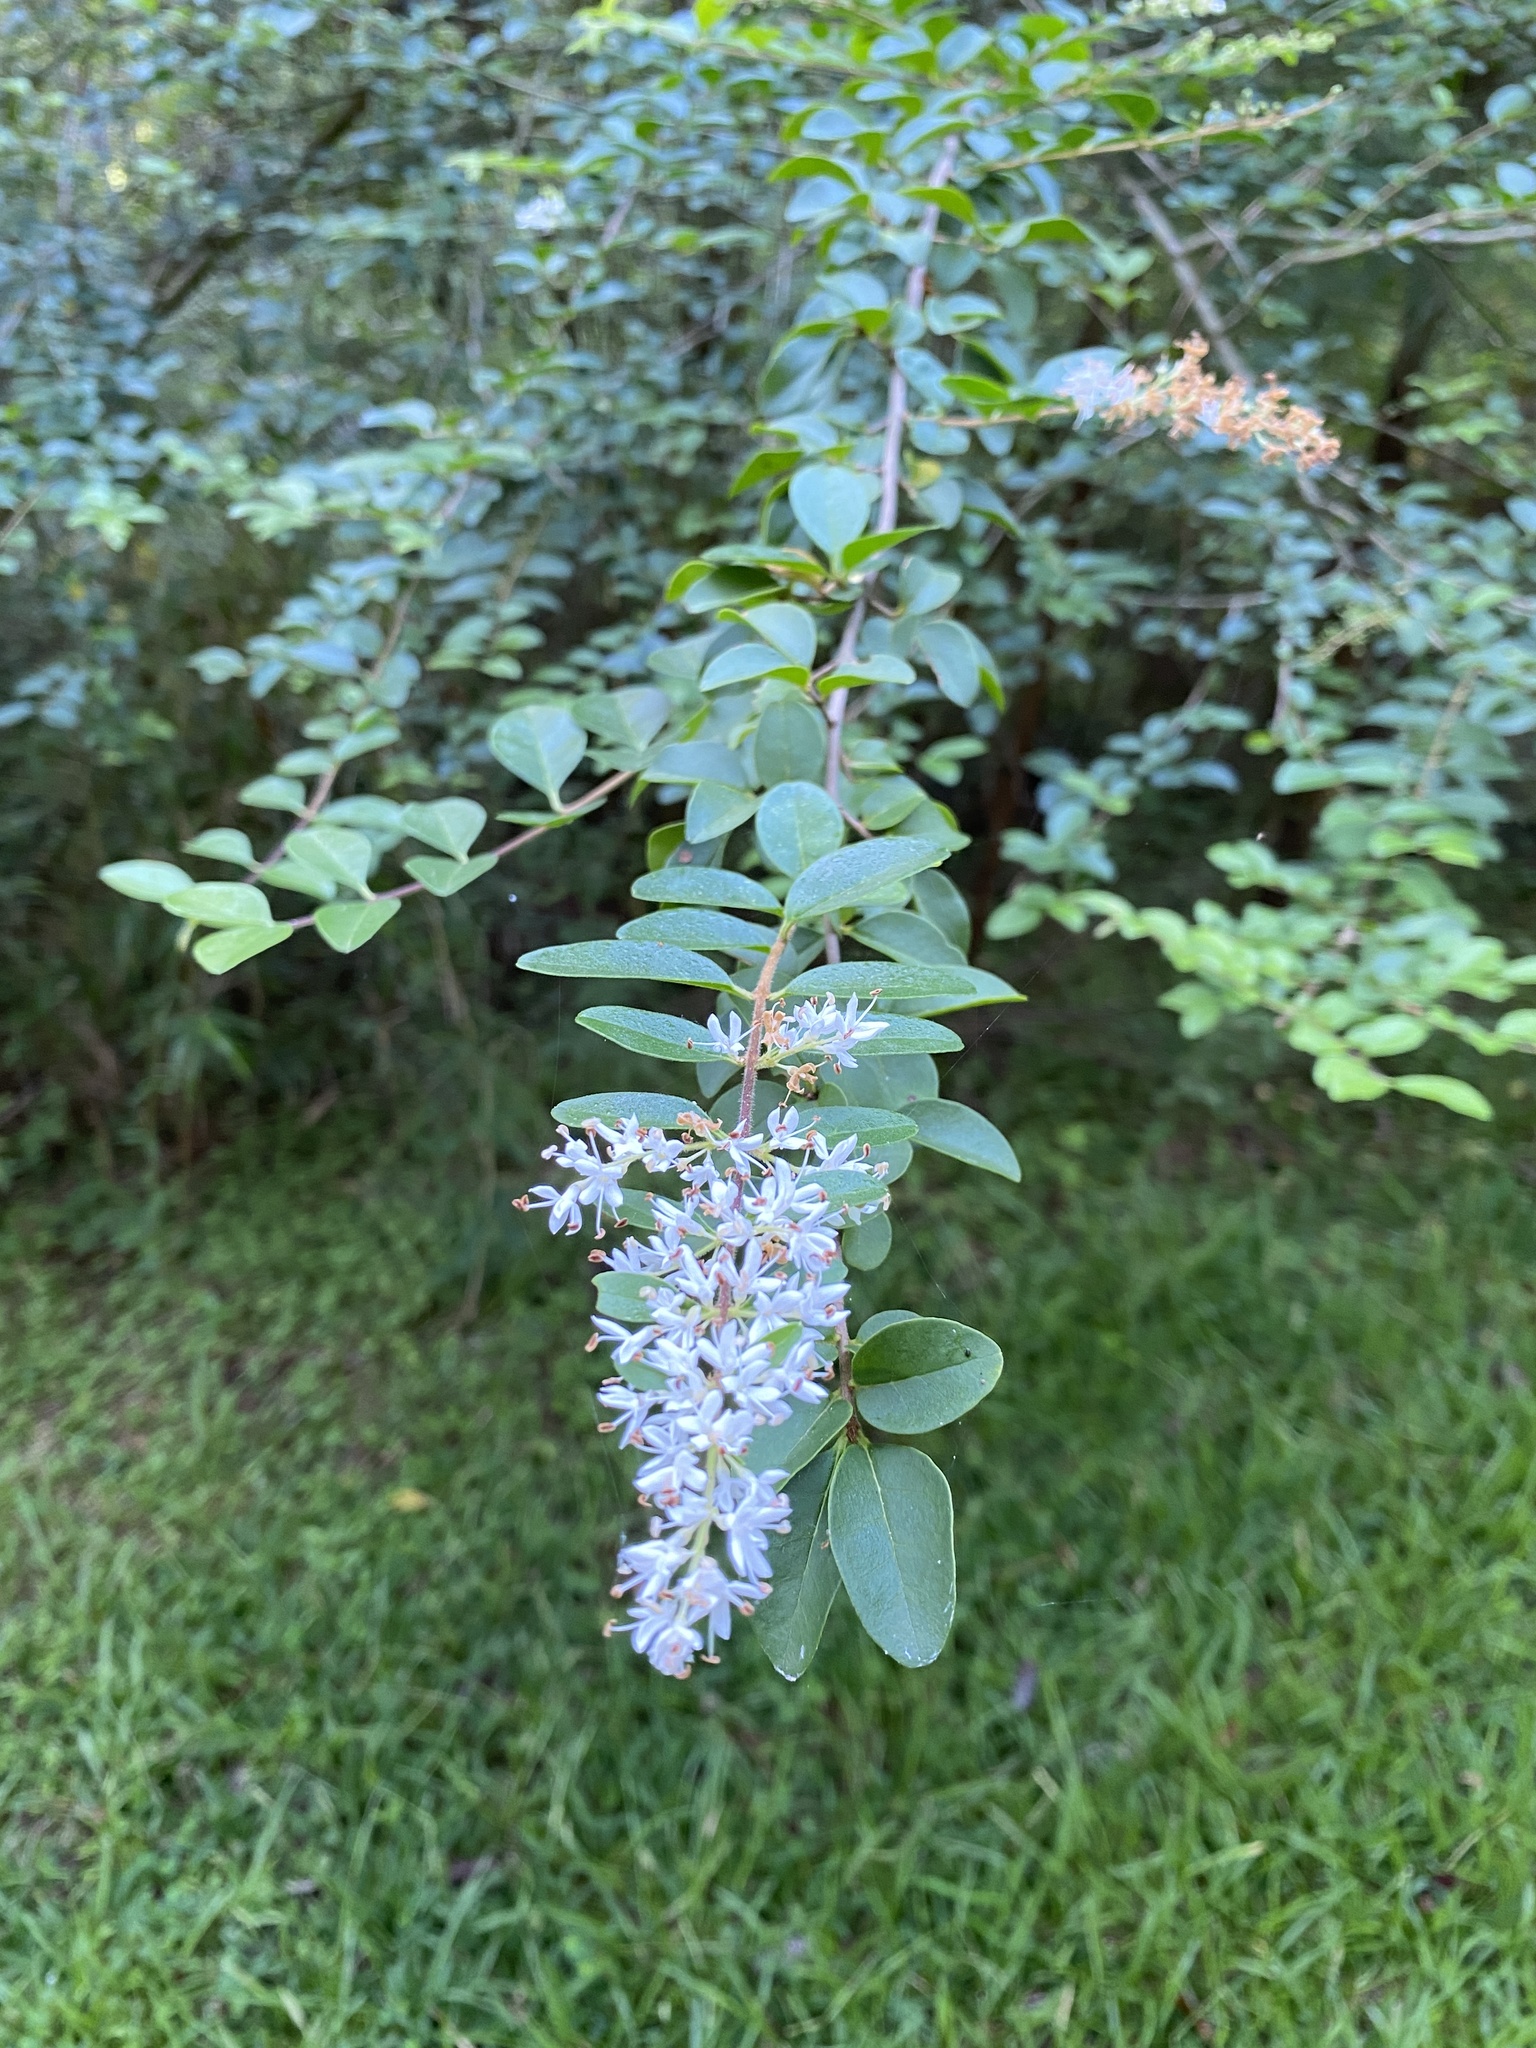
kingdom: Plantae
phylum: Tracheophyta
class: Magnoliopsida
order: Lamiales
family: Oleaceae
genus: Ligustrum
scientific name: Ligustrum sinense
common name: Chinese privet
